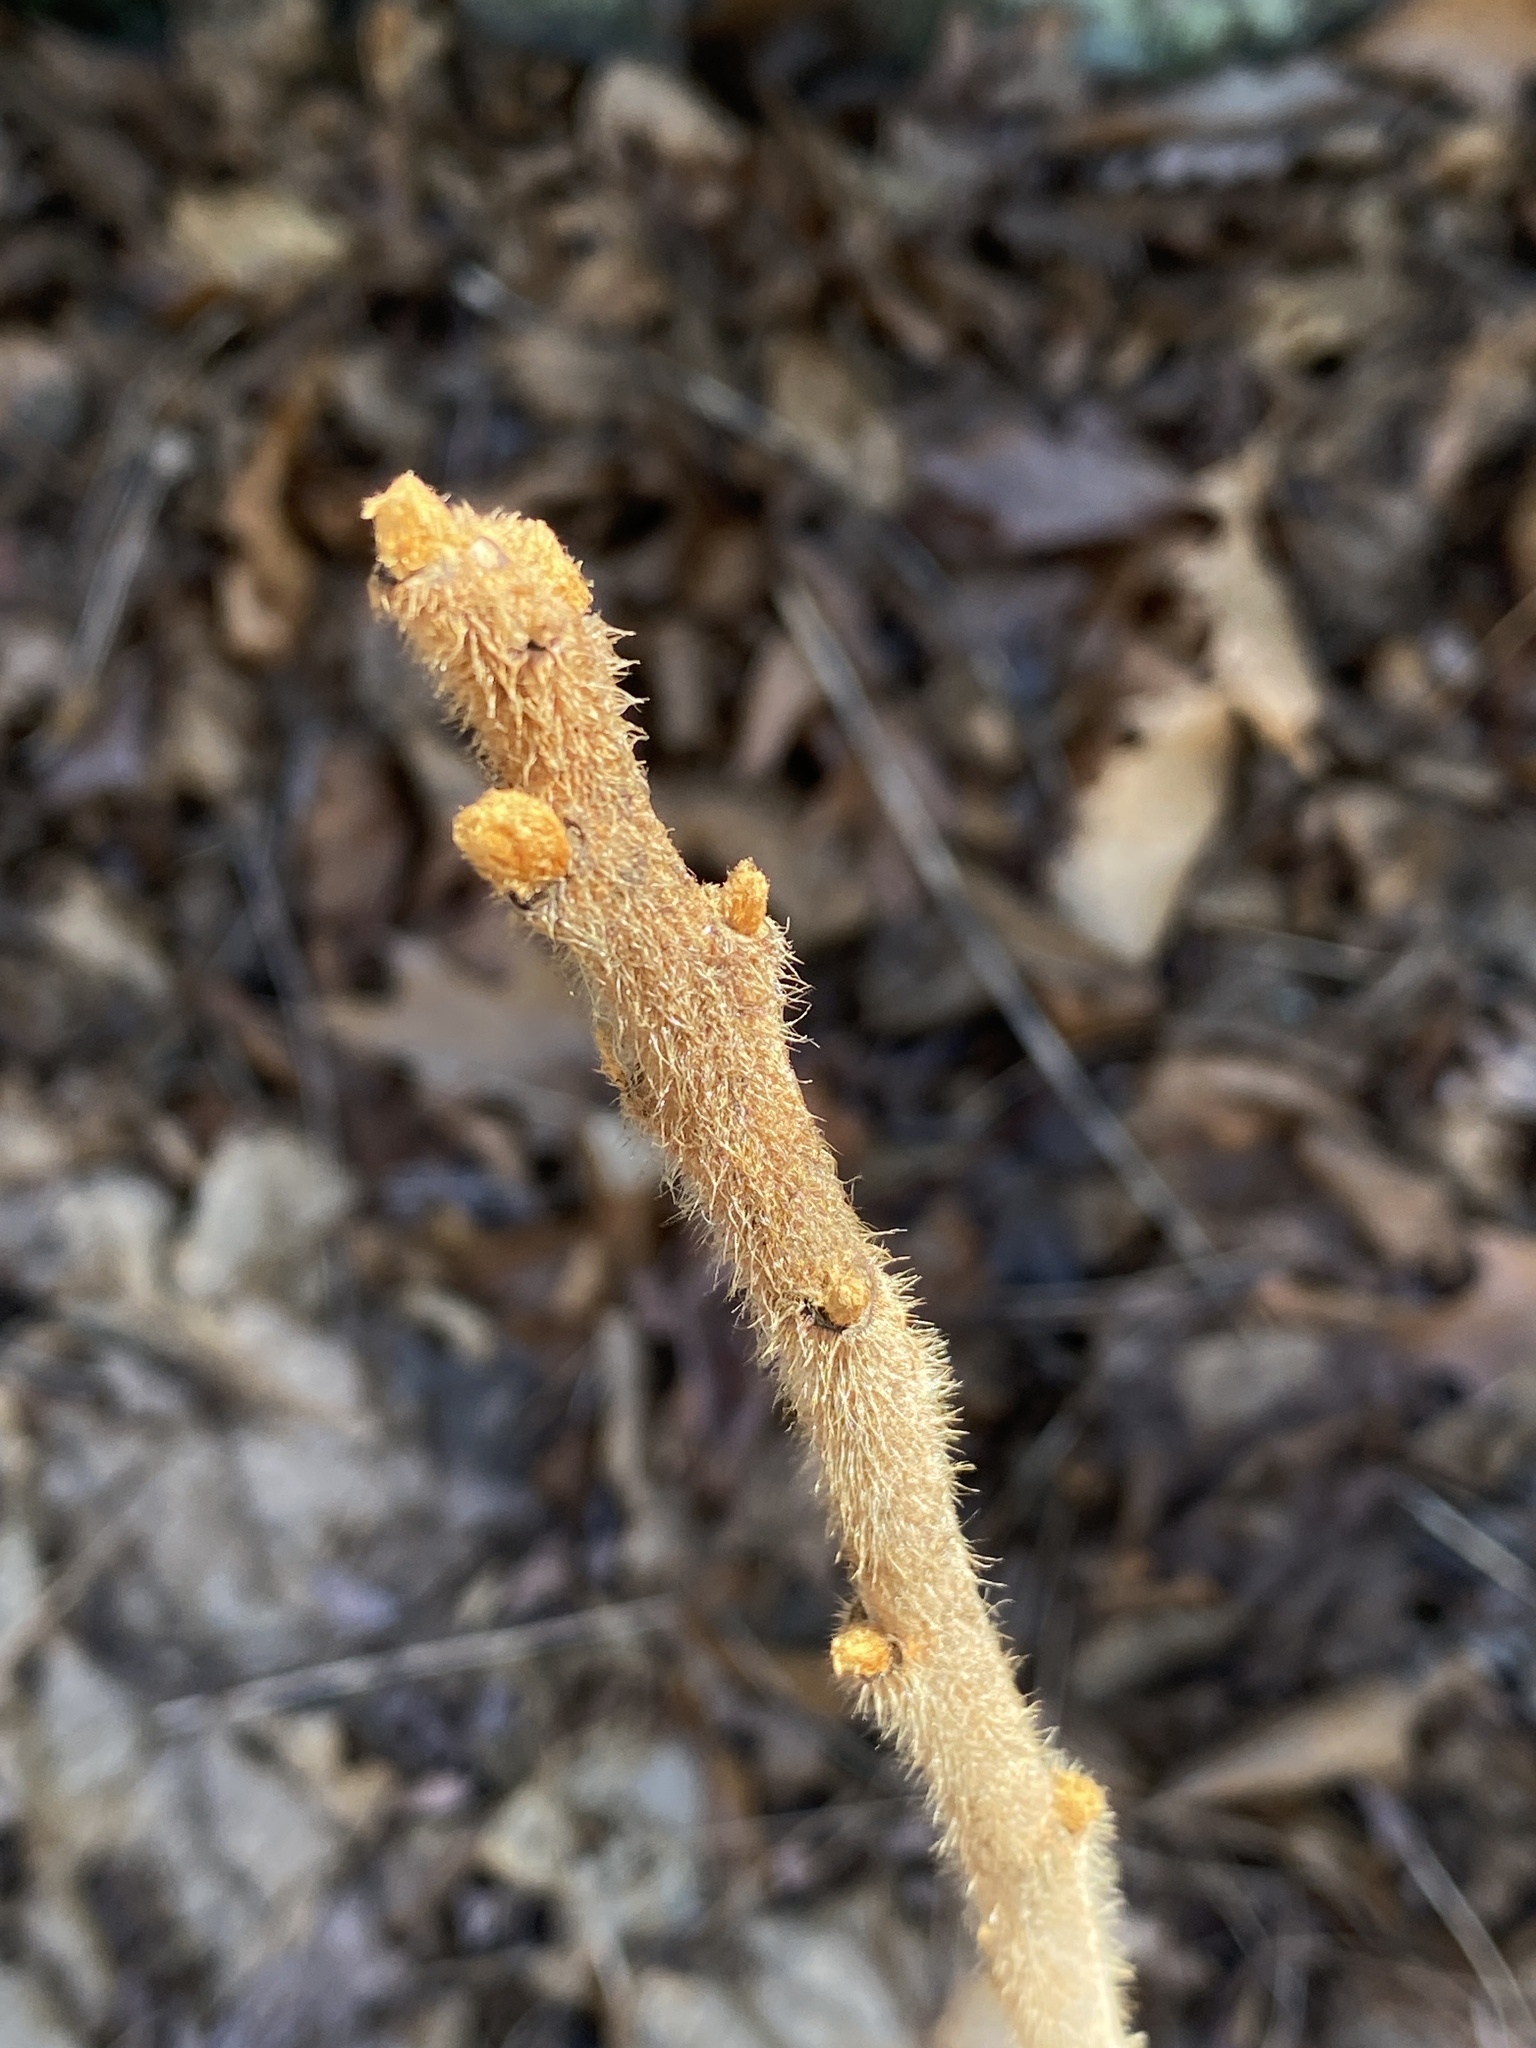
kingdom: Plantae
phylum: Tracheophyta
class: Magnoliopsida
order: Sapindales
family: Anacardiaceae
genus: Rhus
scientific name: Rhus typhina
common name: Staghorn sumac
